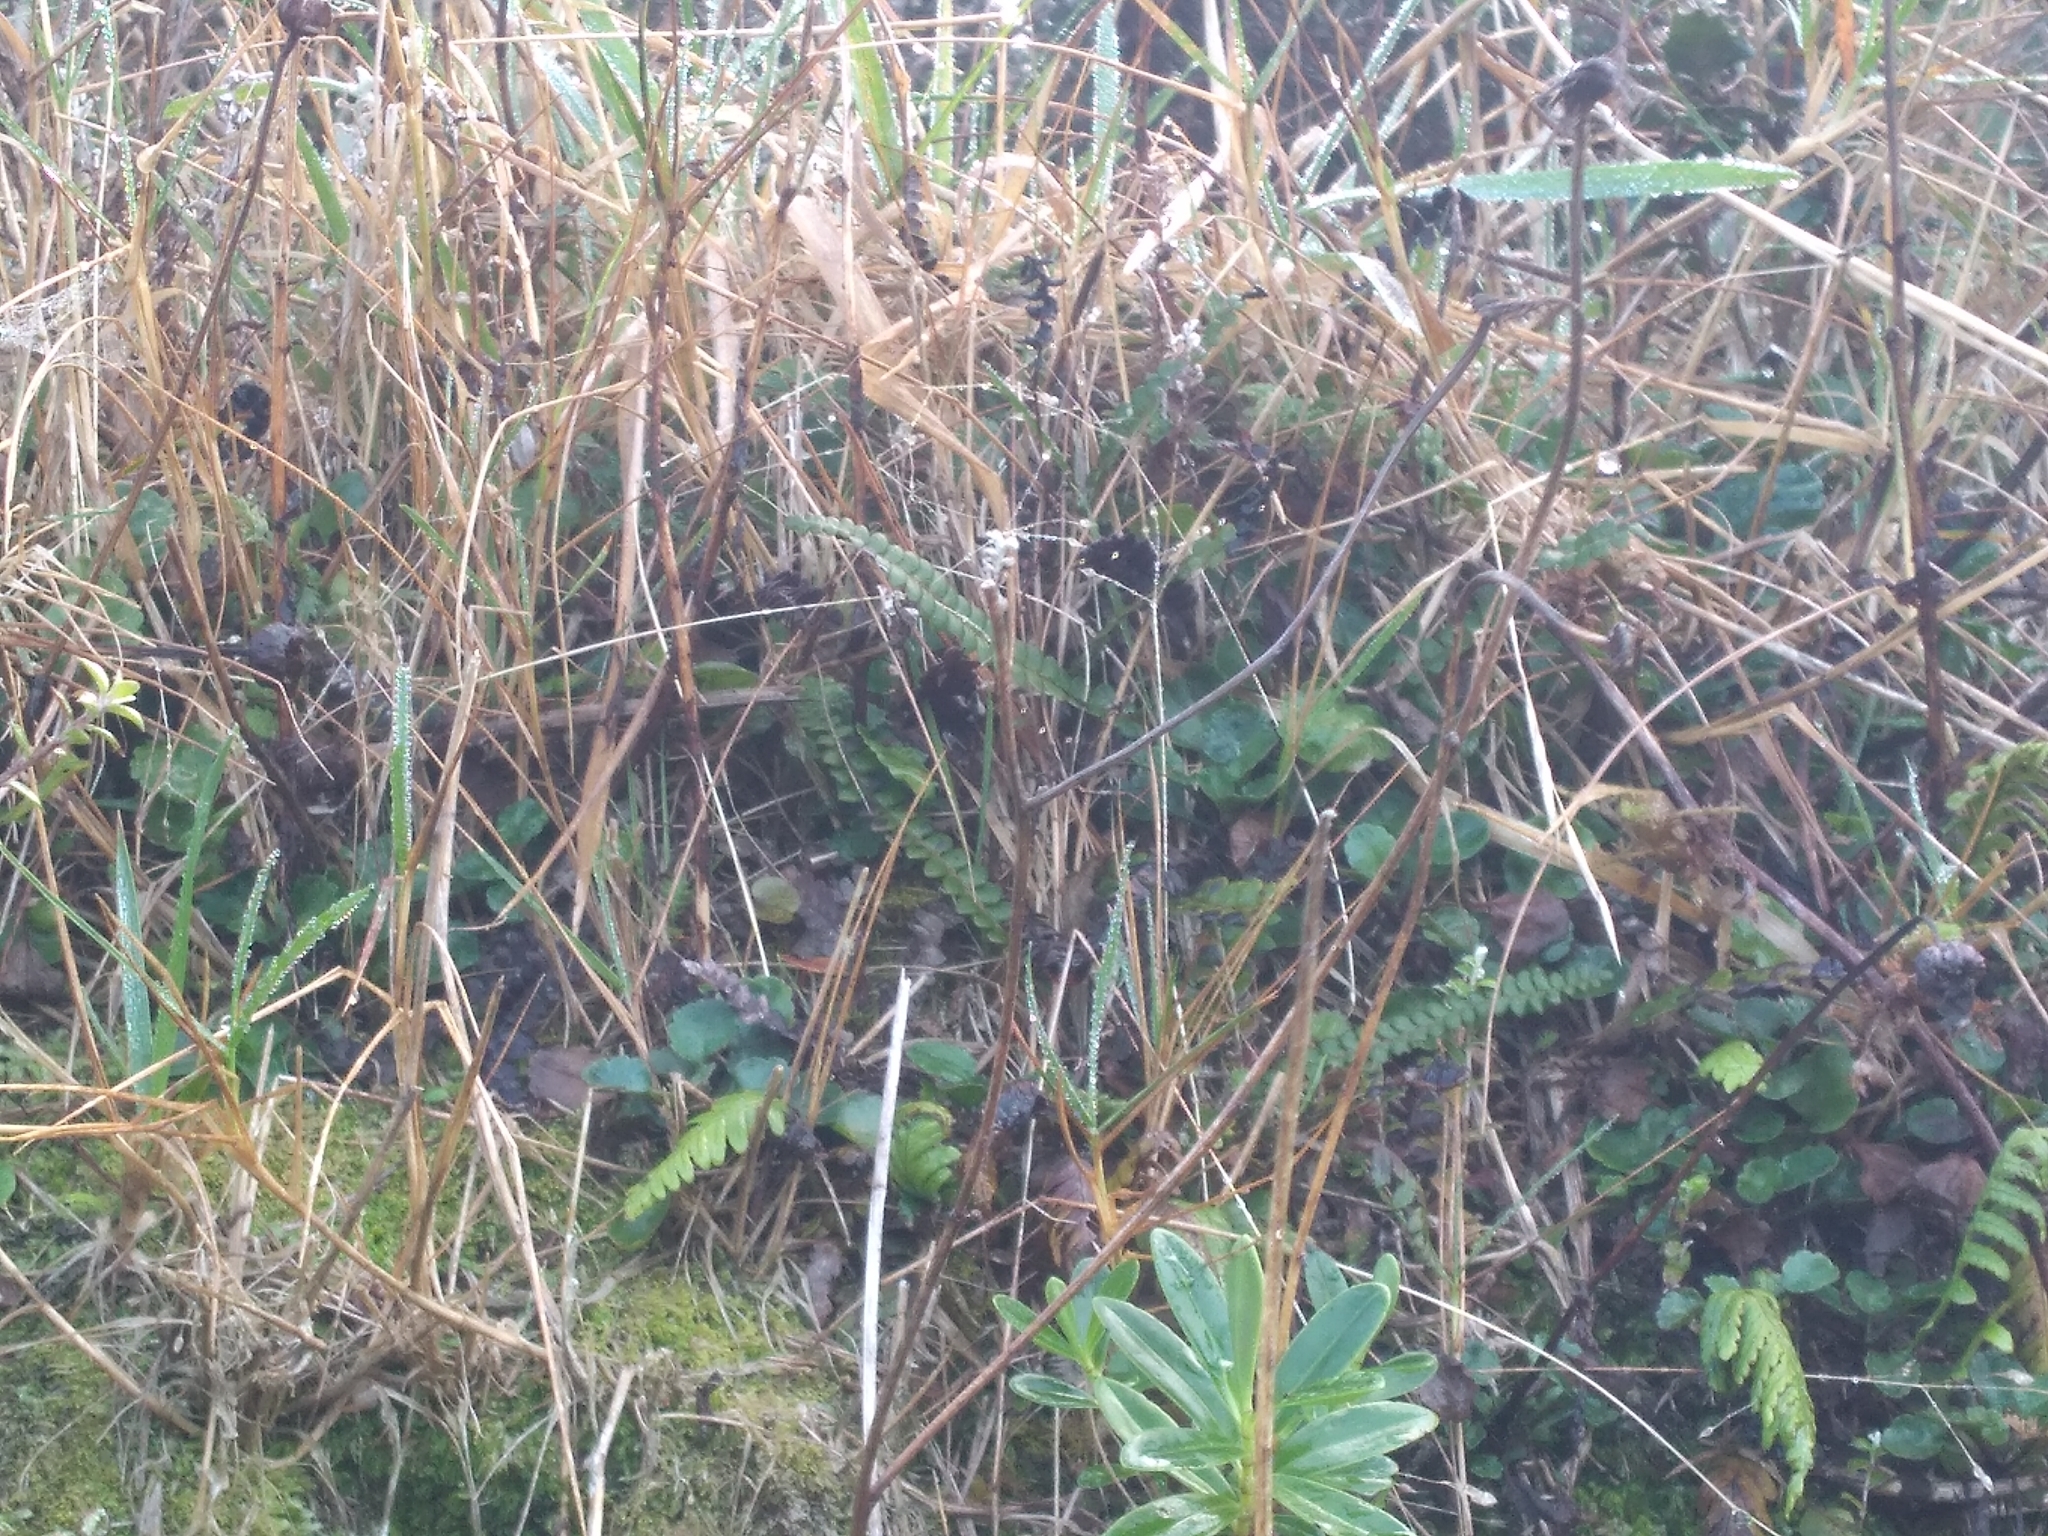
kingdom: Plantae
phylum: Tracheophyta
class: Polypodiopsida
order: Polypodiales
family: Blechnaceae
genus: Austroblechnum
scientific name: Austroblechnum penna-marina
